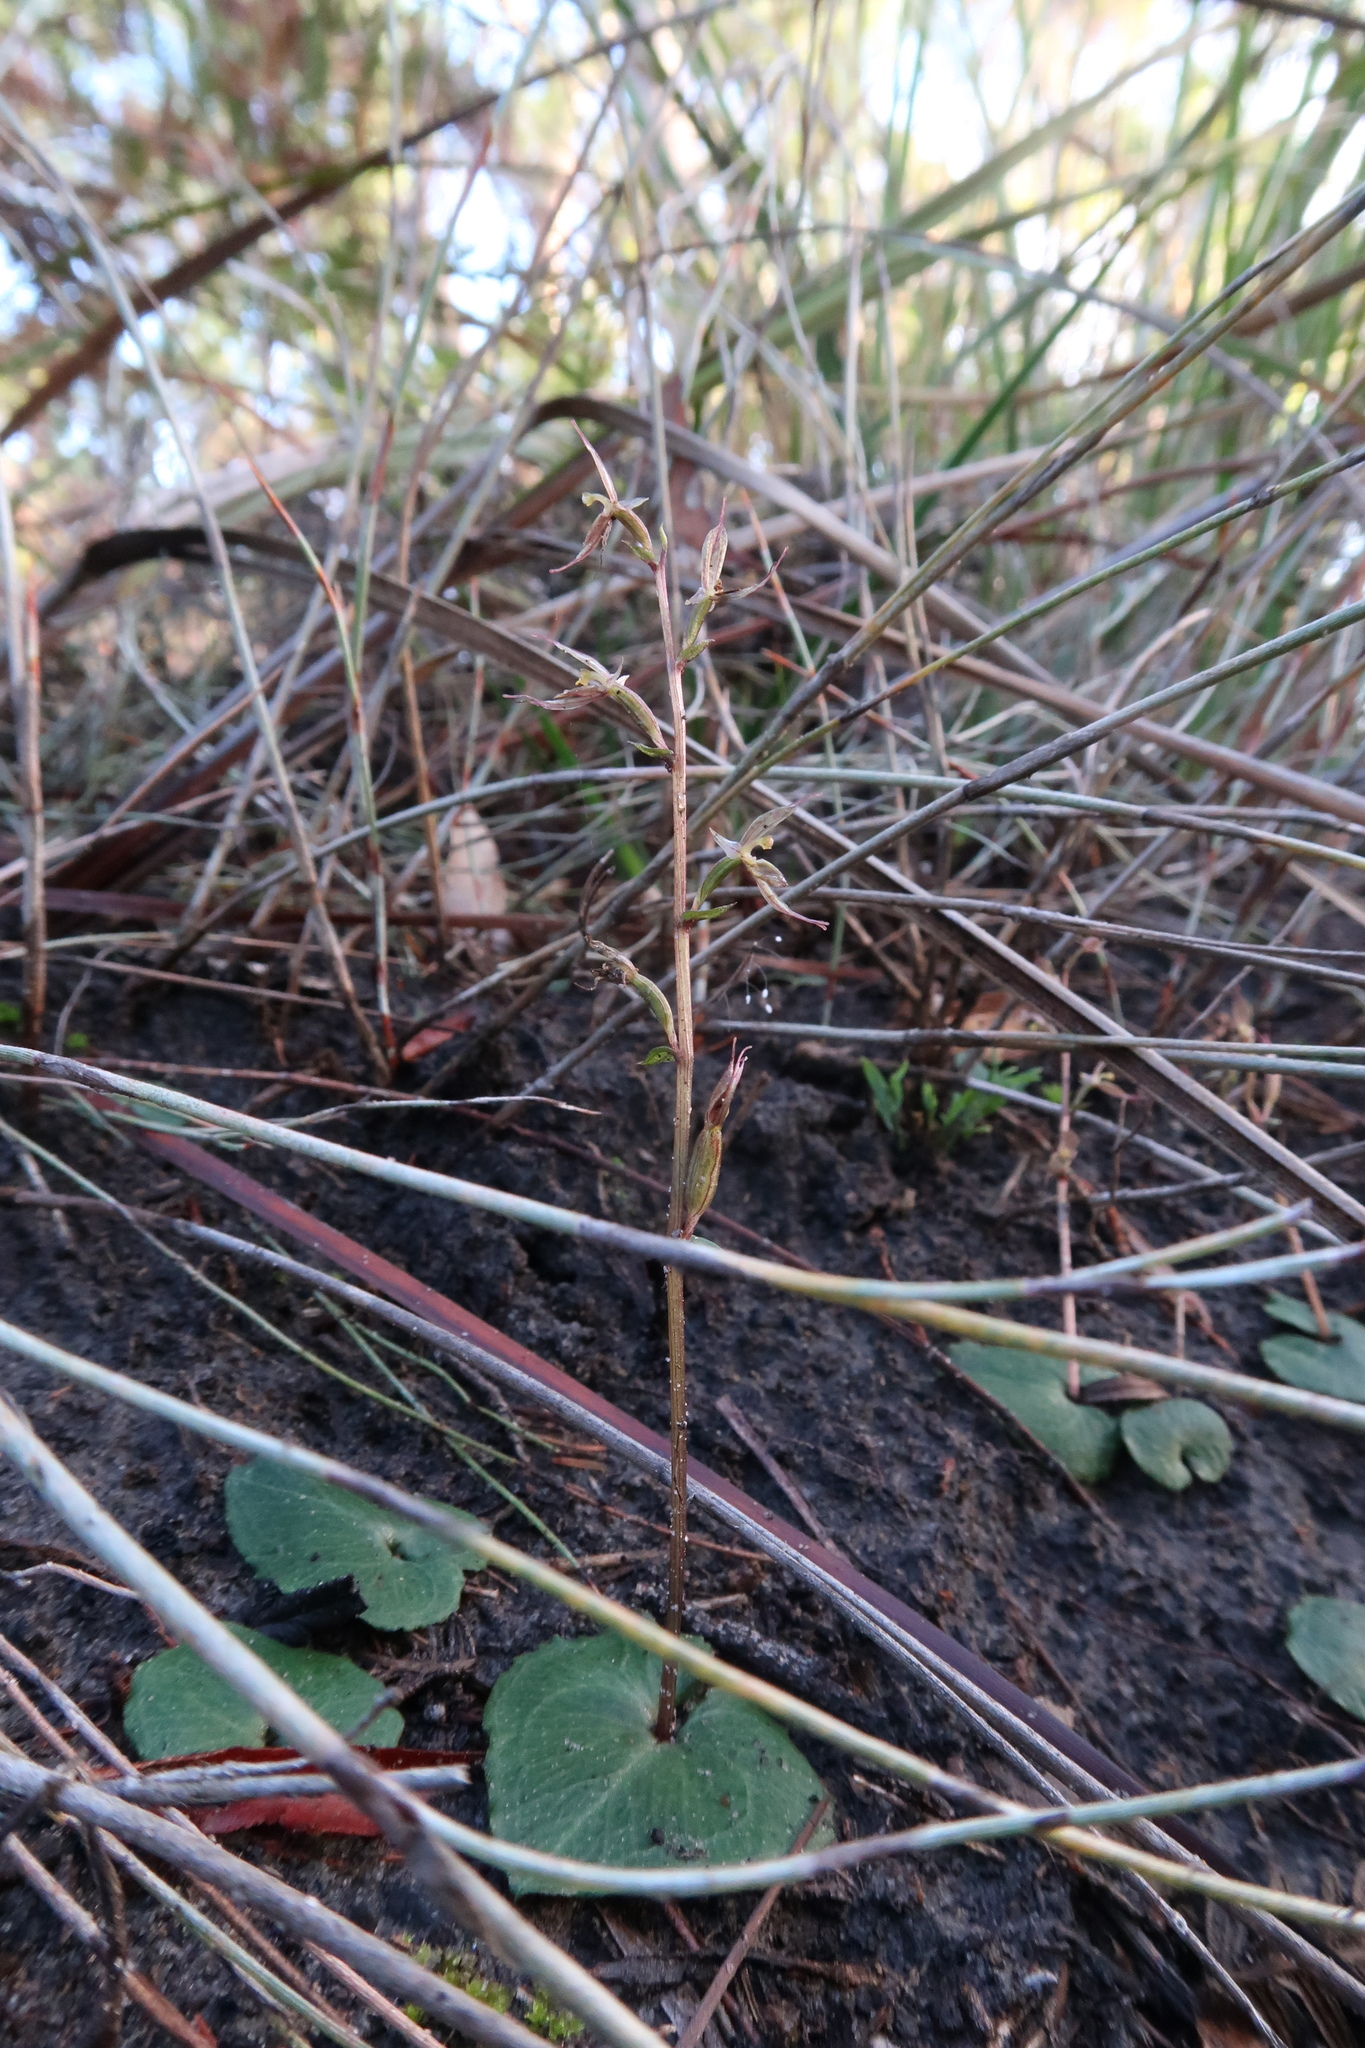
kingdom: Plantae
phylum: Tracheophyta
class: Liliopsida
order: Asparagales
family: Orchidaceae
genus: Acianthus
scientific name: Acianthus pusillus
